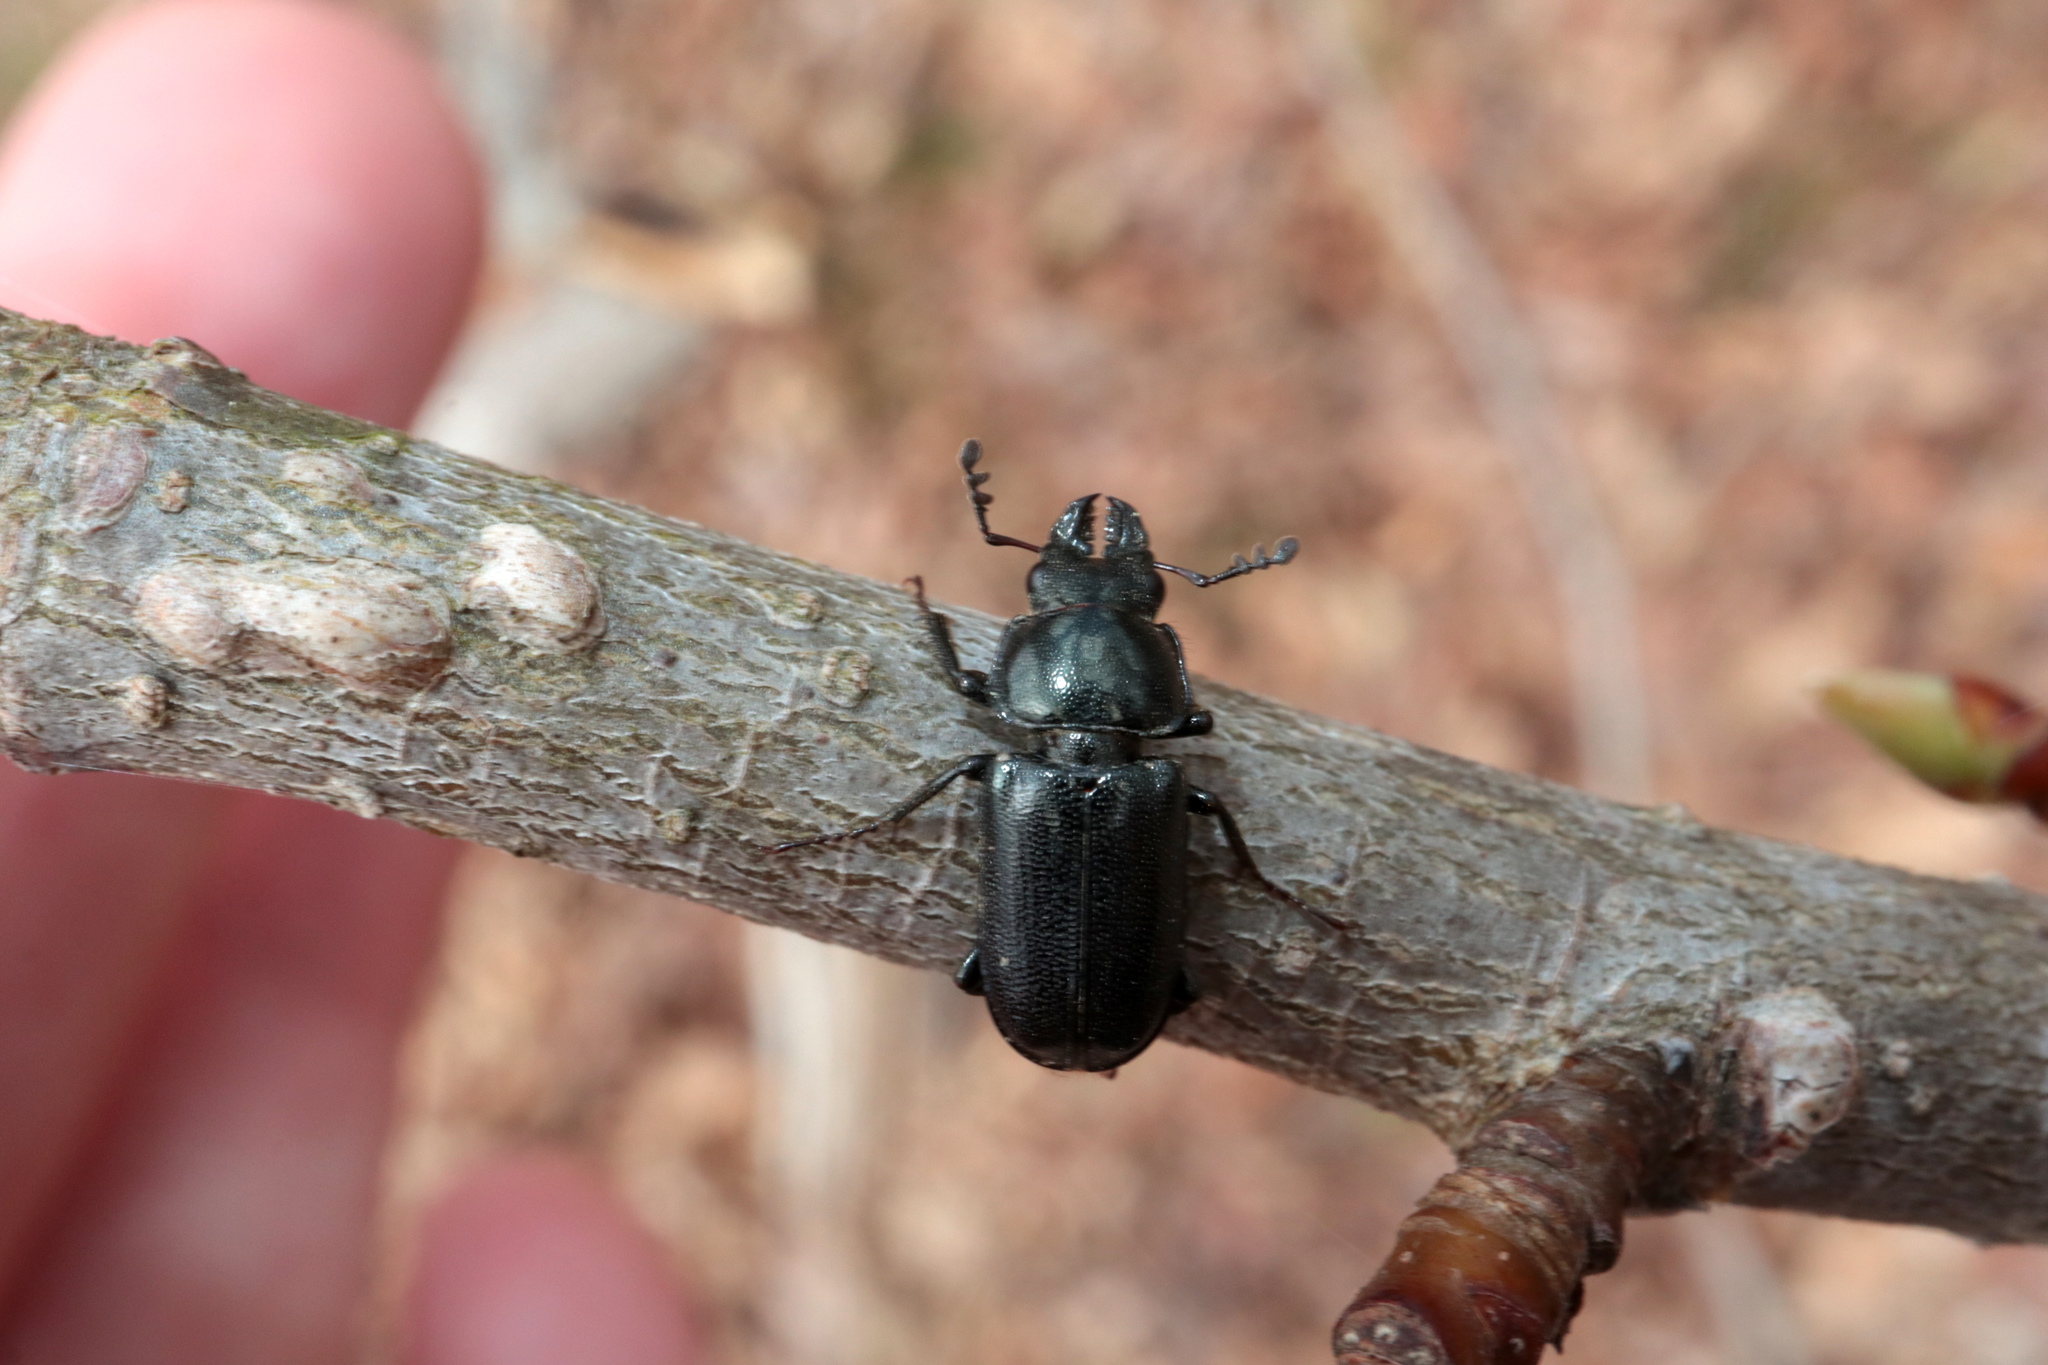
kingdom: Animalia
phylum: Arthropoda
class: Insecta
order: Coleoptera
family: Lucanidae
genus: Platycerus
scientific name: Platycerus quercus
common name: Oak stag beetle
